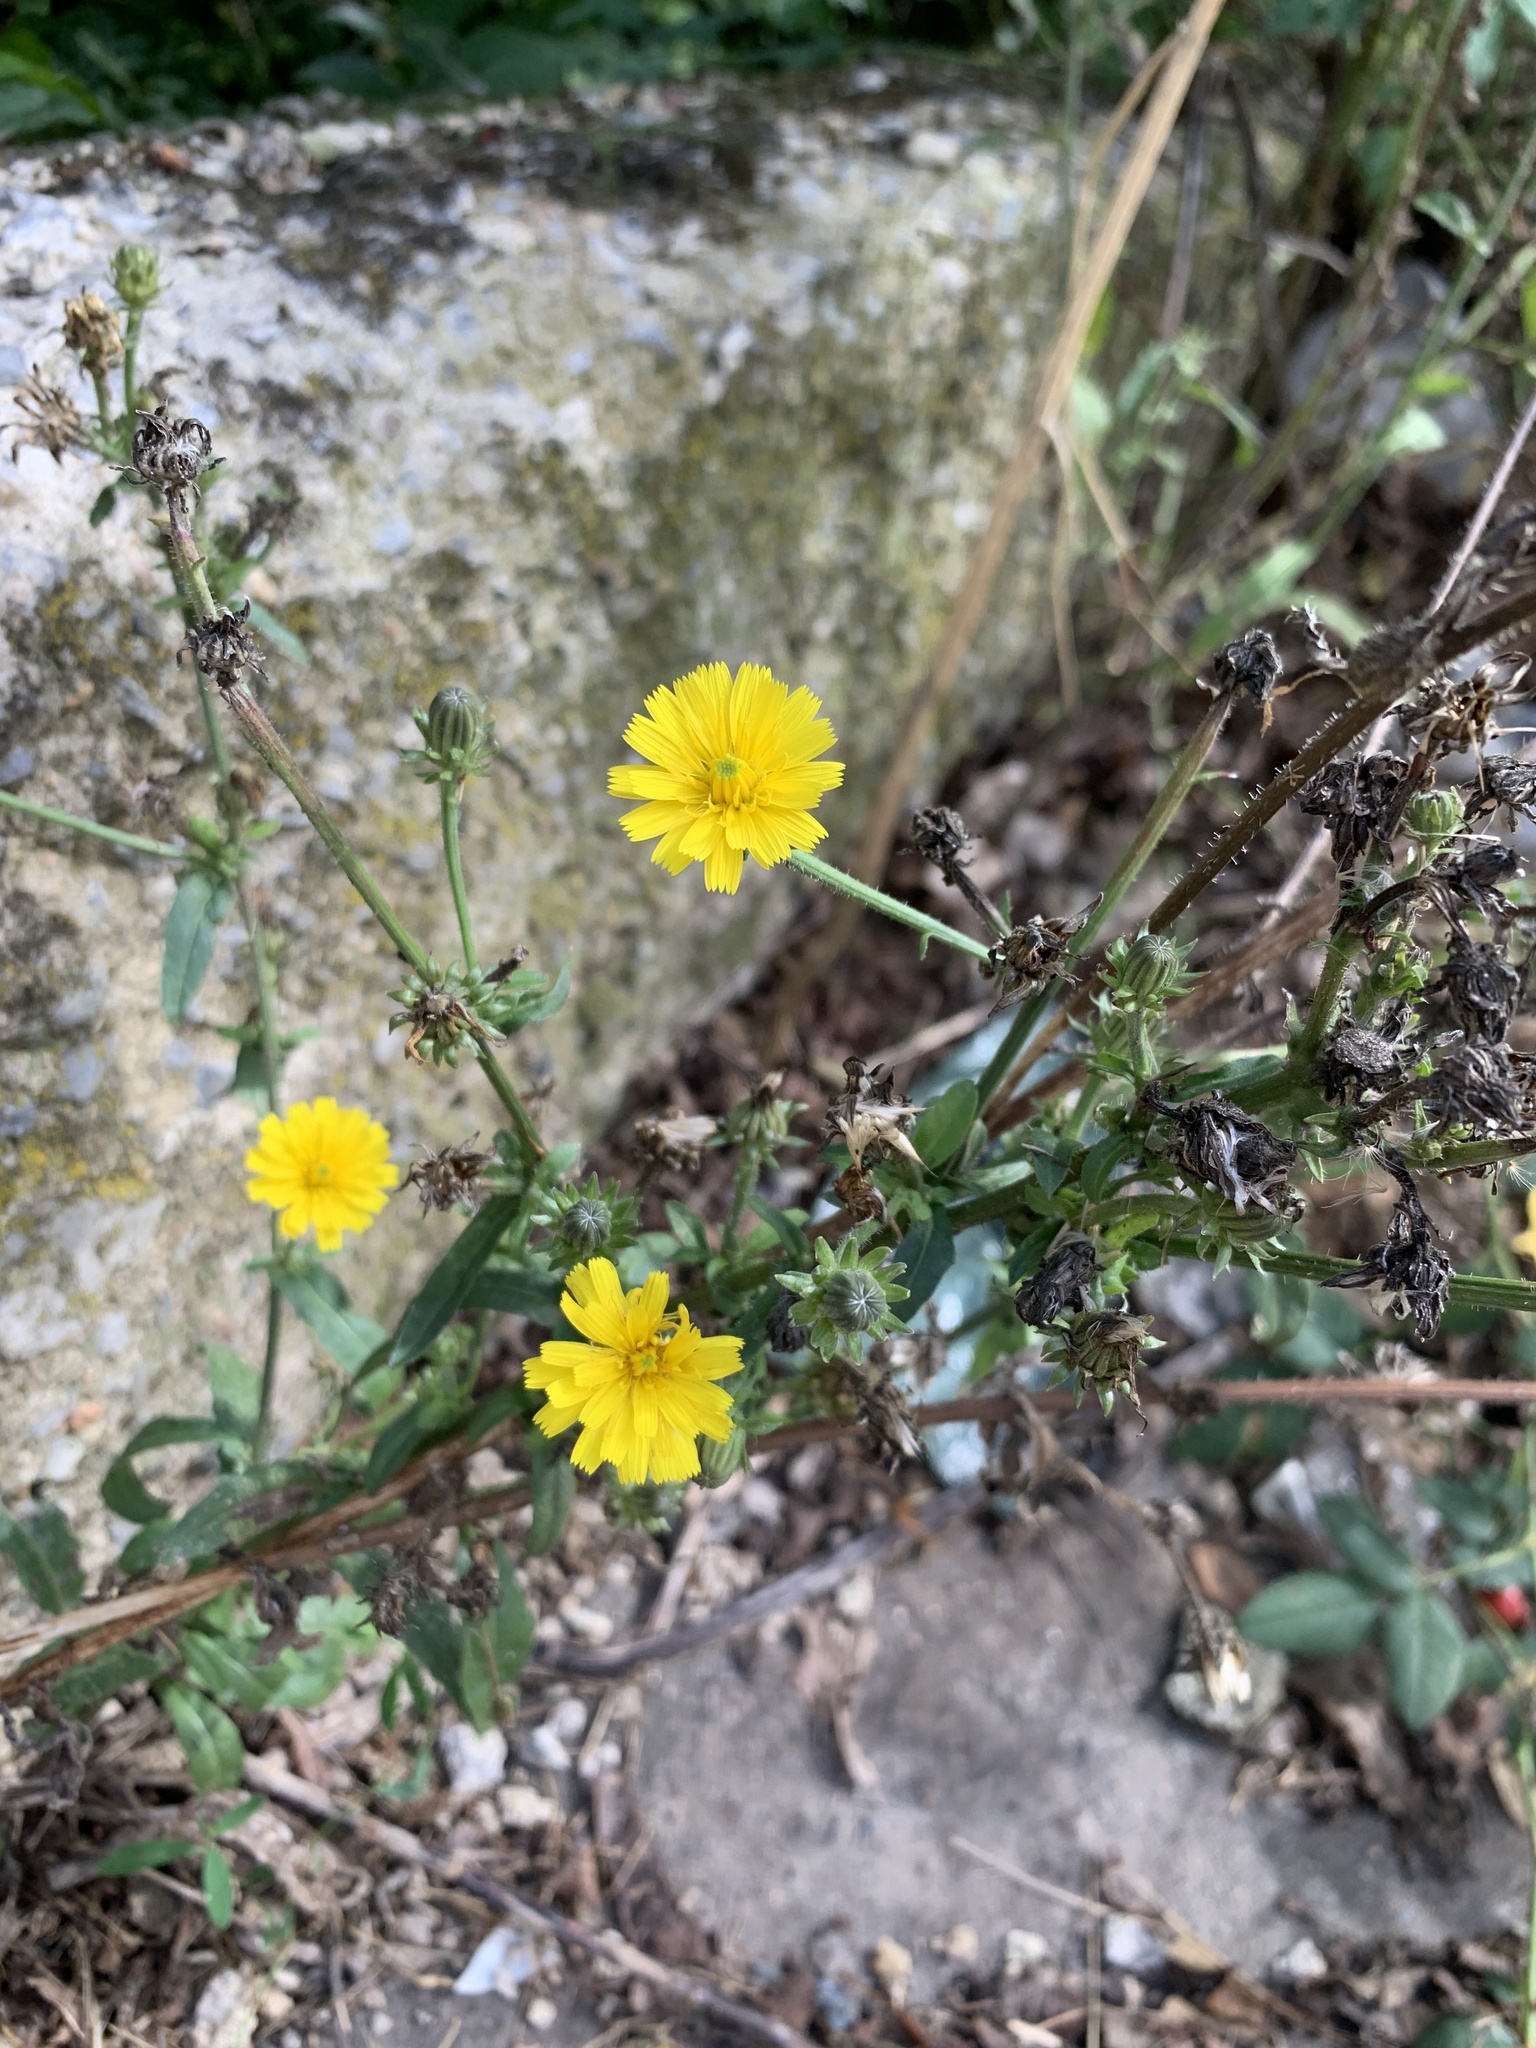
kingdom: Plantae
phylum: Tracheophyta
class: Magnoliopsida
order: Asterales
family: Asteraceae
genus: Picris
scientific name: Picris hieracioides
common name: Hawkweed oxtongue
